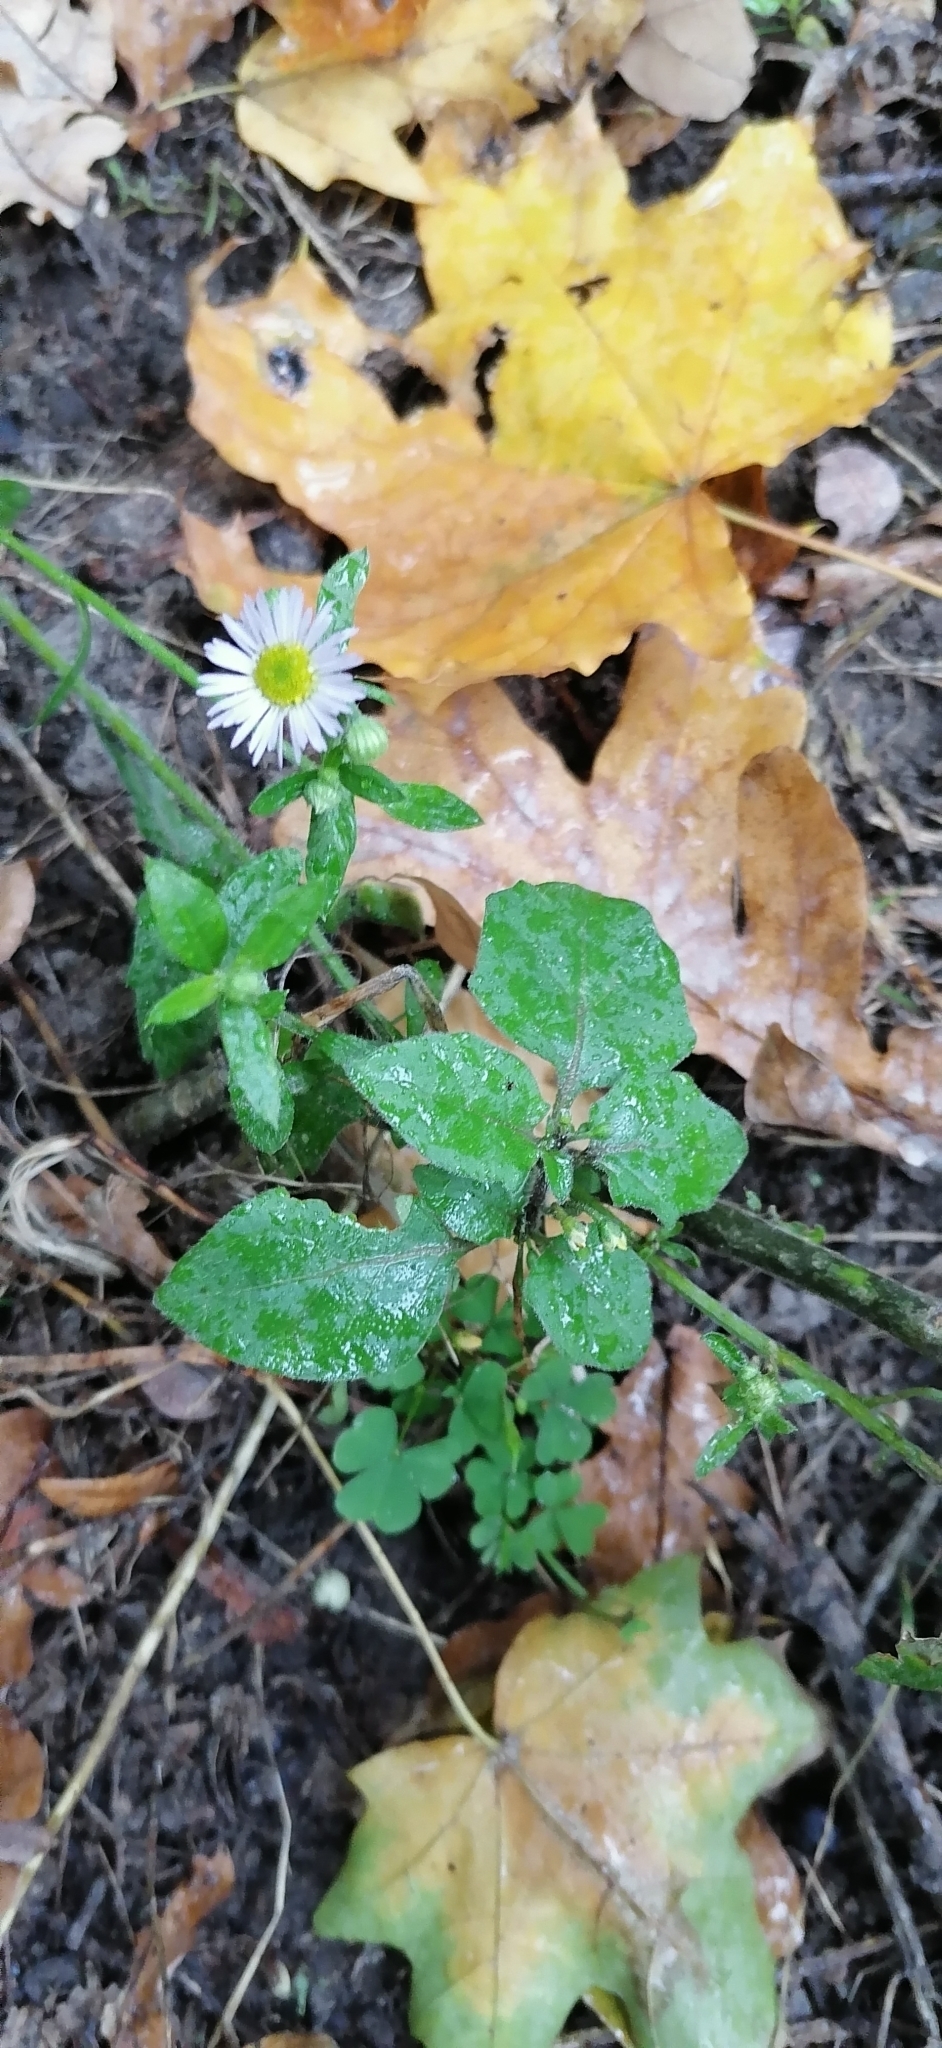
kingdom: Plantae
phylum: Tracheophyta
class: Magnoliopsida
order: Asterales
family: Asteraceae
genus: Erigeron
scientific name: Erigeron annuus
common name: Tall fleabane
